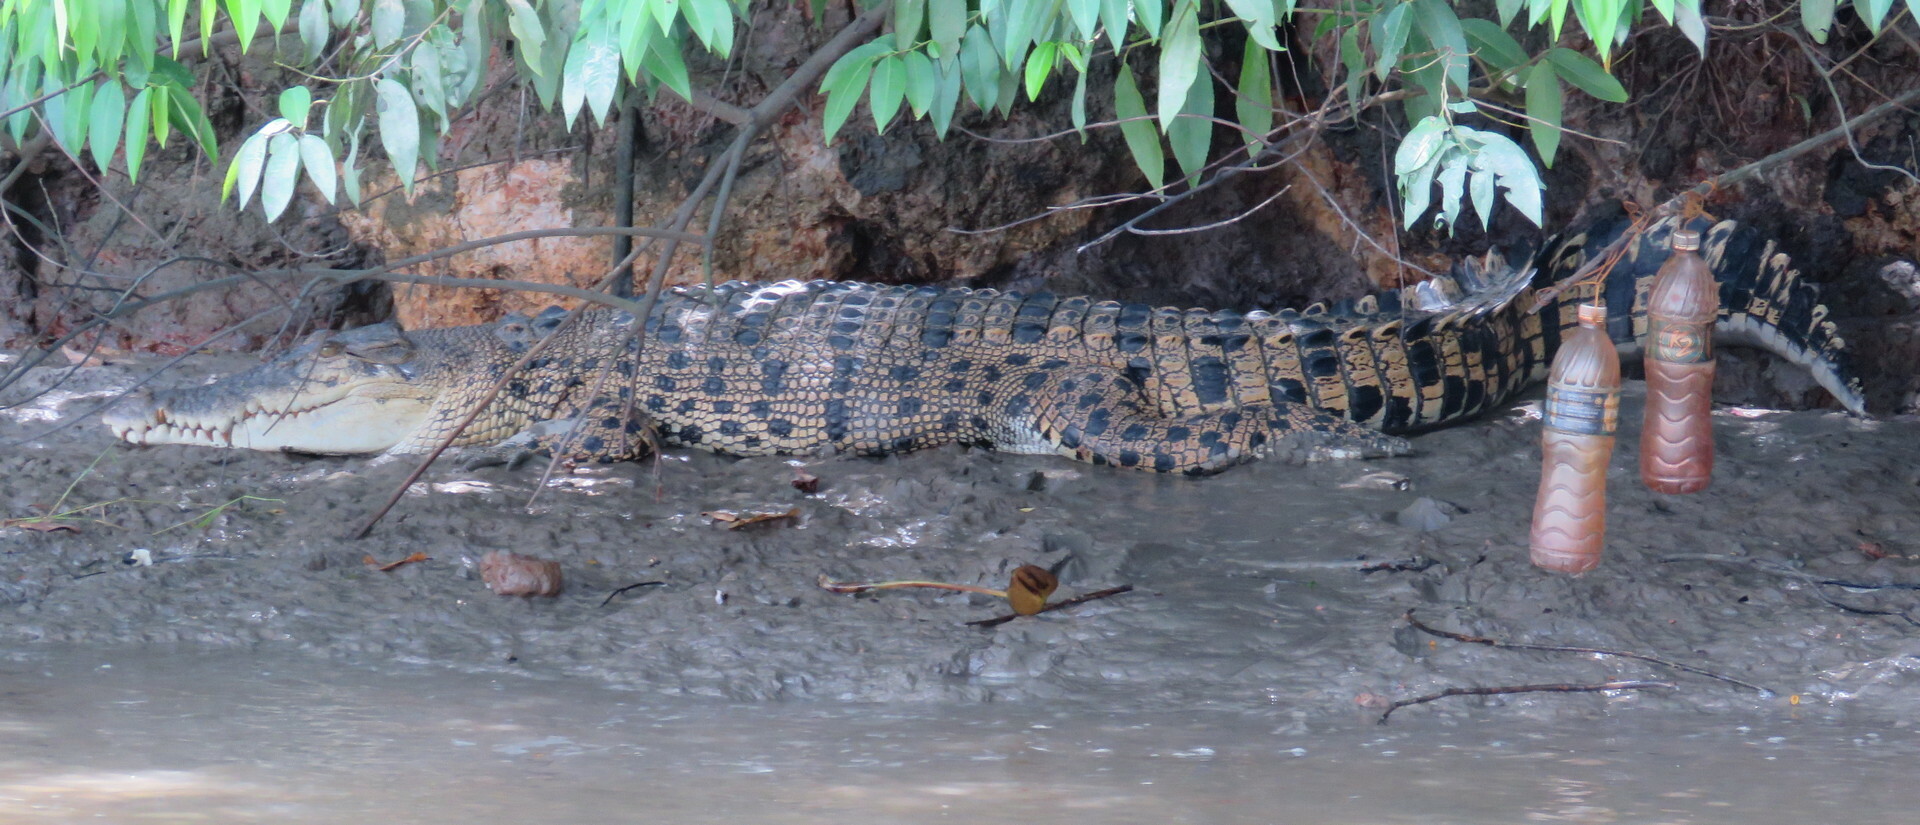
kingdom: Animalia
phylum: Chordata
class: Crocodylia
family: Crocodylidae
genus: Crocodylus
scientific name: Crocodylus porosus
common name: Saltwater crocodile
